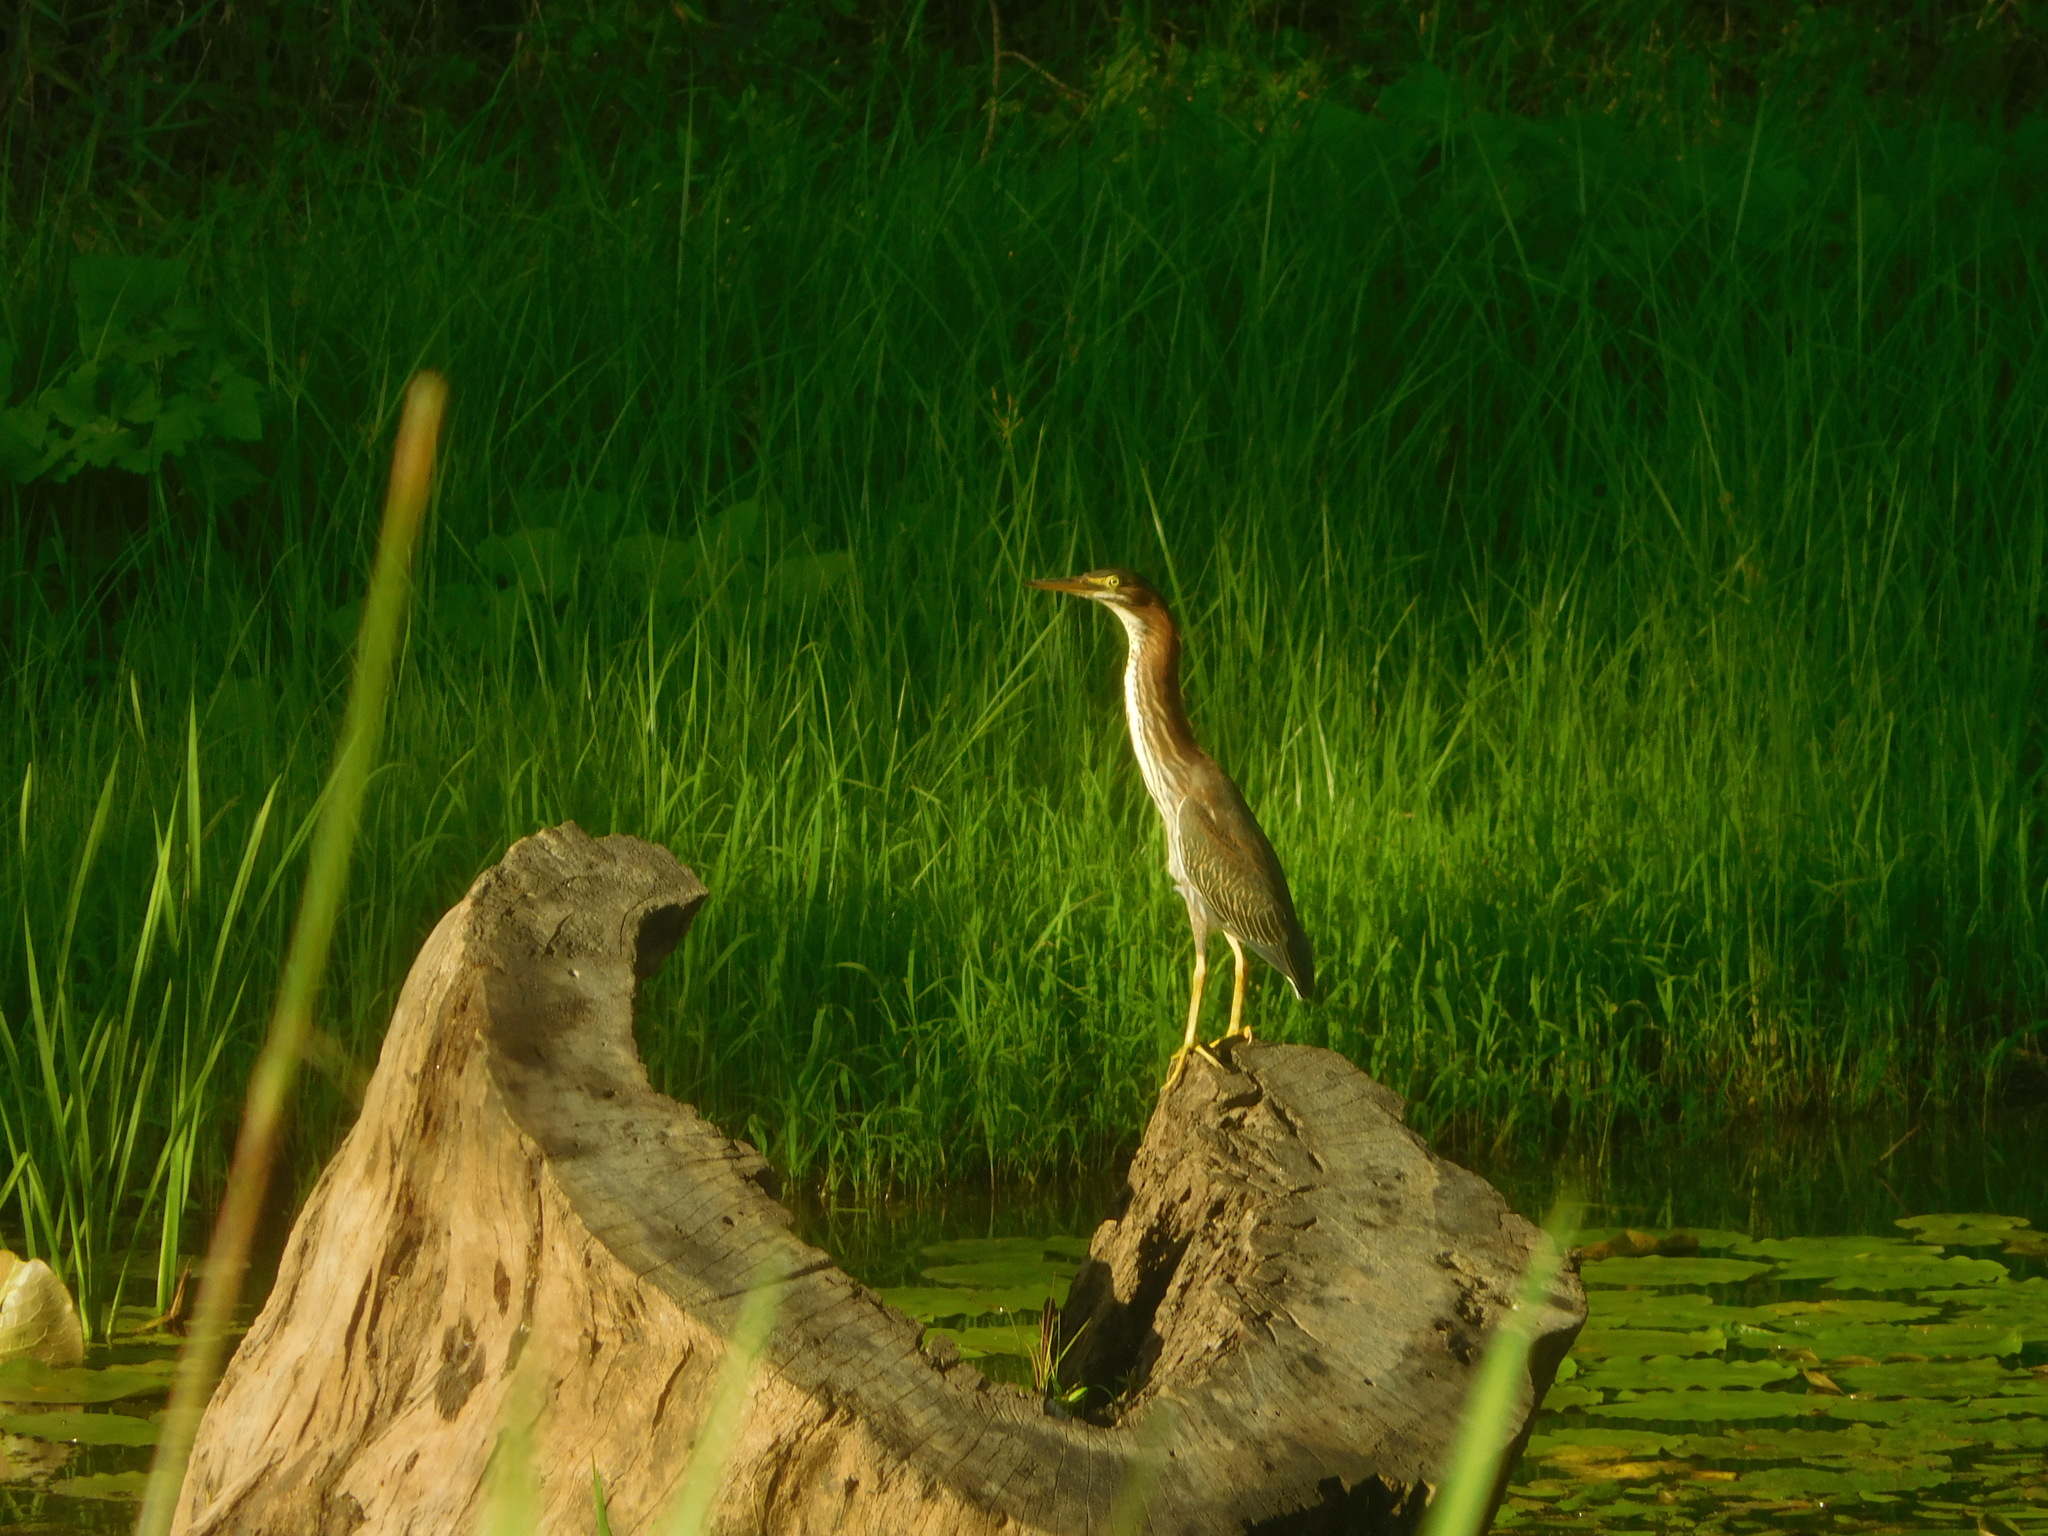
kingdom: Animalia
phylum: Chordata
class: Aves
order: Pelecaniformes
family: Ardeidae
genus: Butorides
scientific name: Butorides virescens
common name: Green heron
